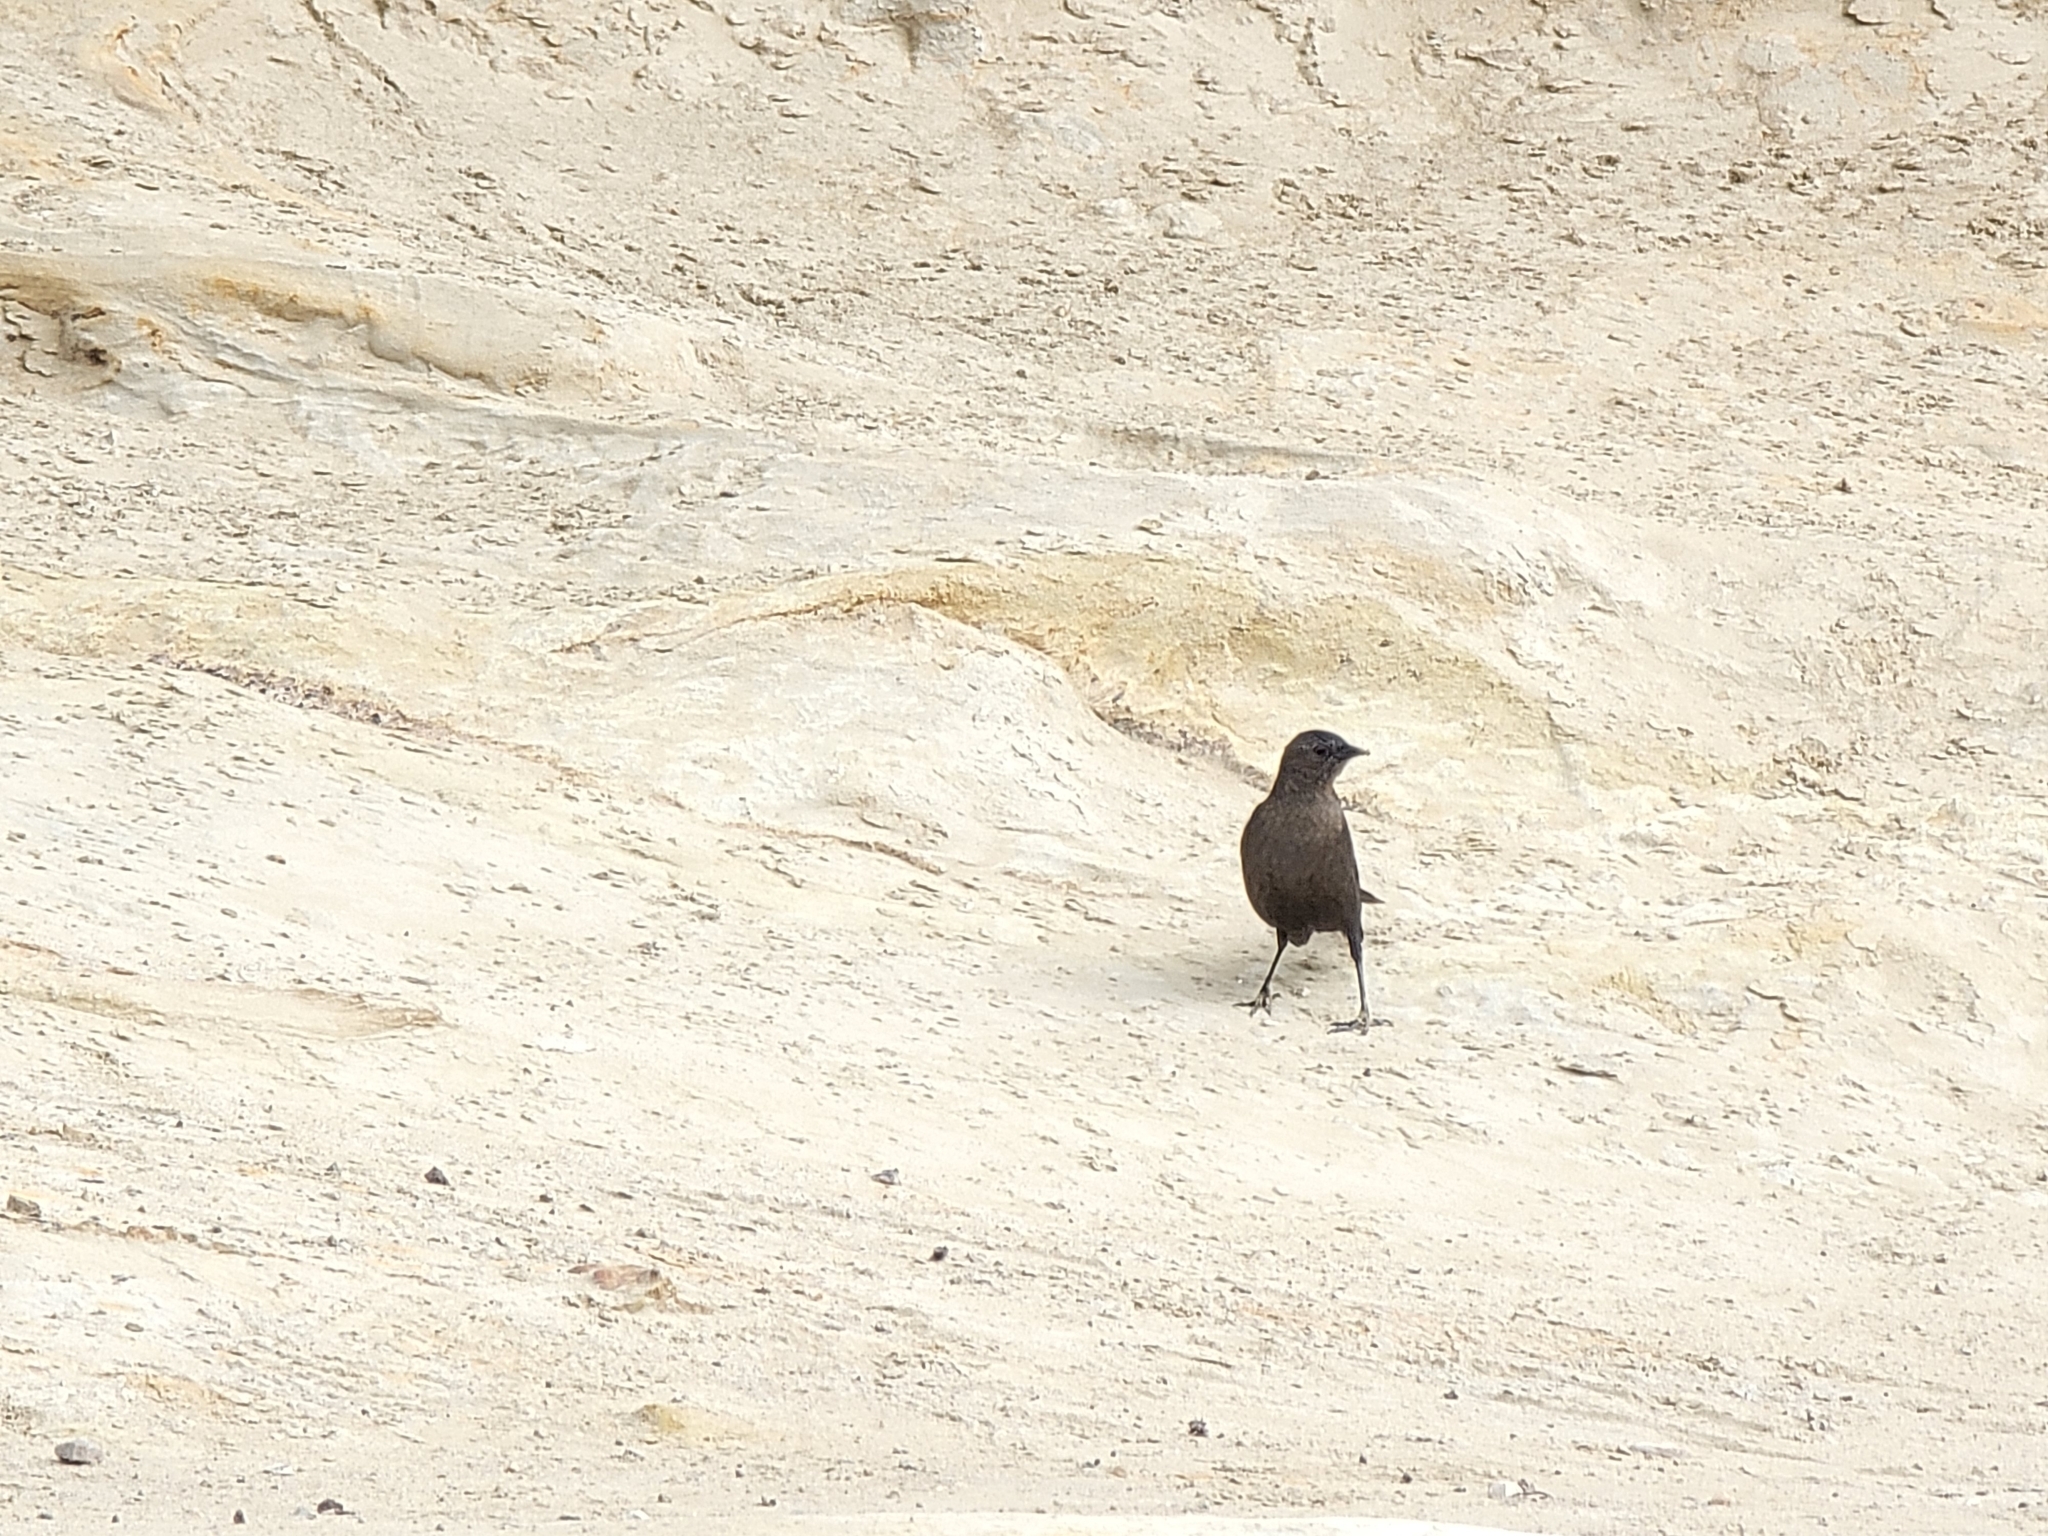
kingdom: Animalia
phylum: Chordata
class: Aves
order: Passeriformes
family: Icteridae
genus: Euphagus
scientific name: Euphagus cyanocephalus
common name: Brewer's blackbird
